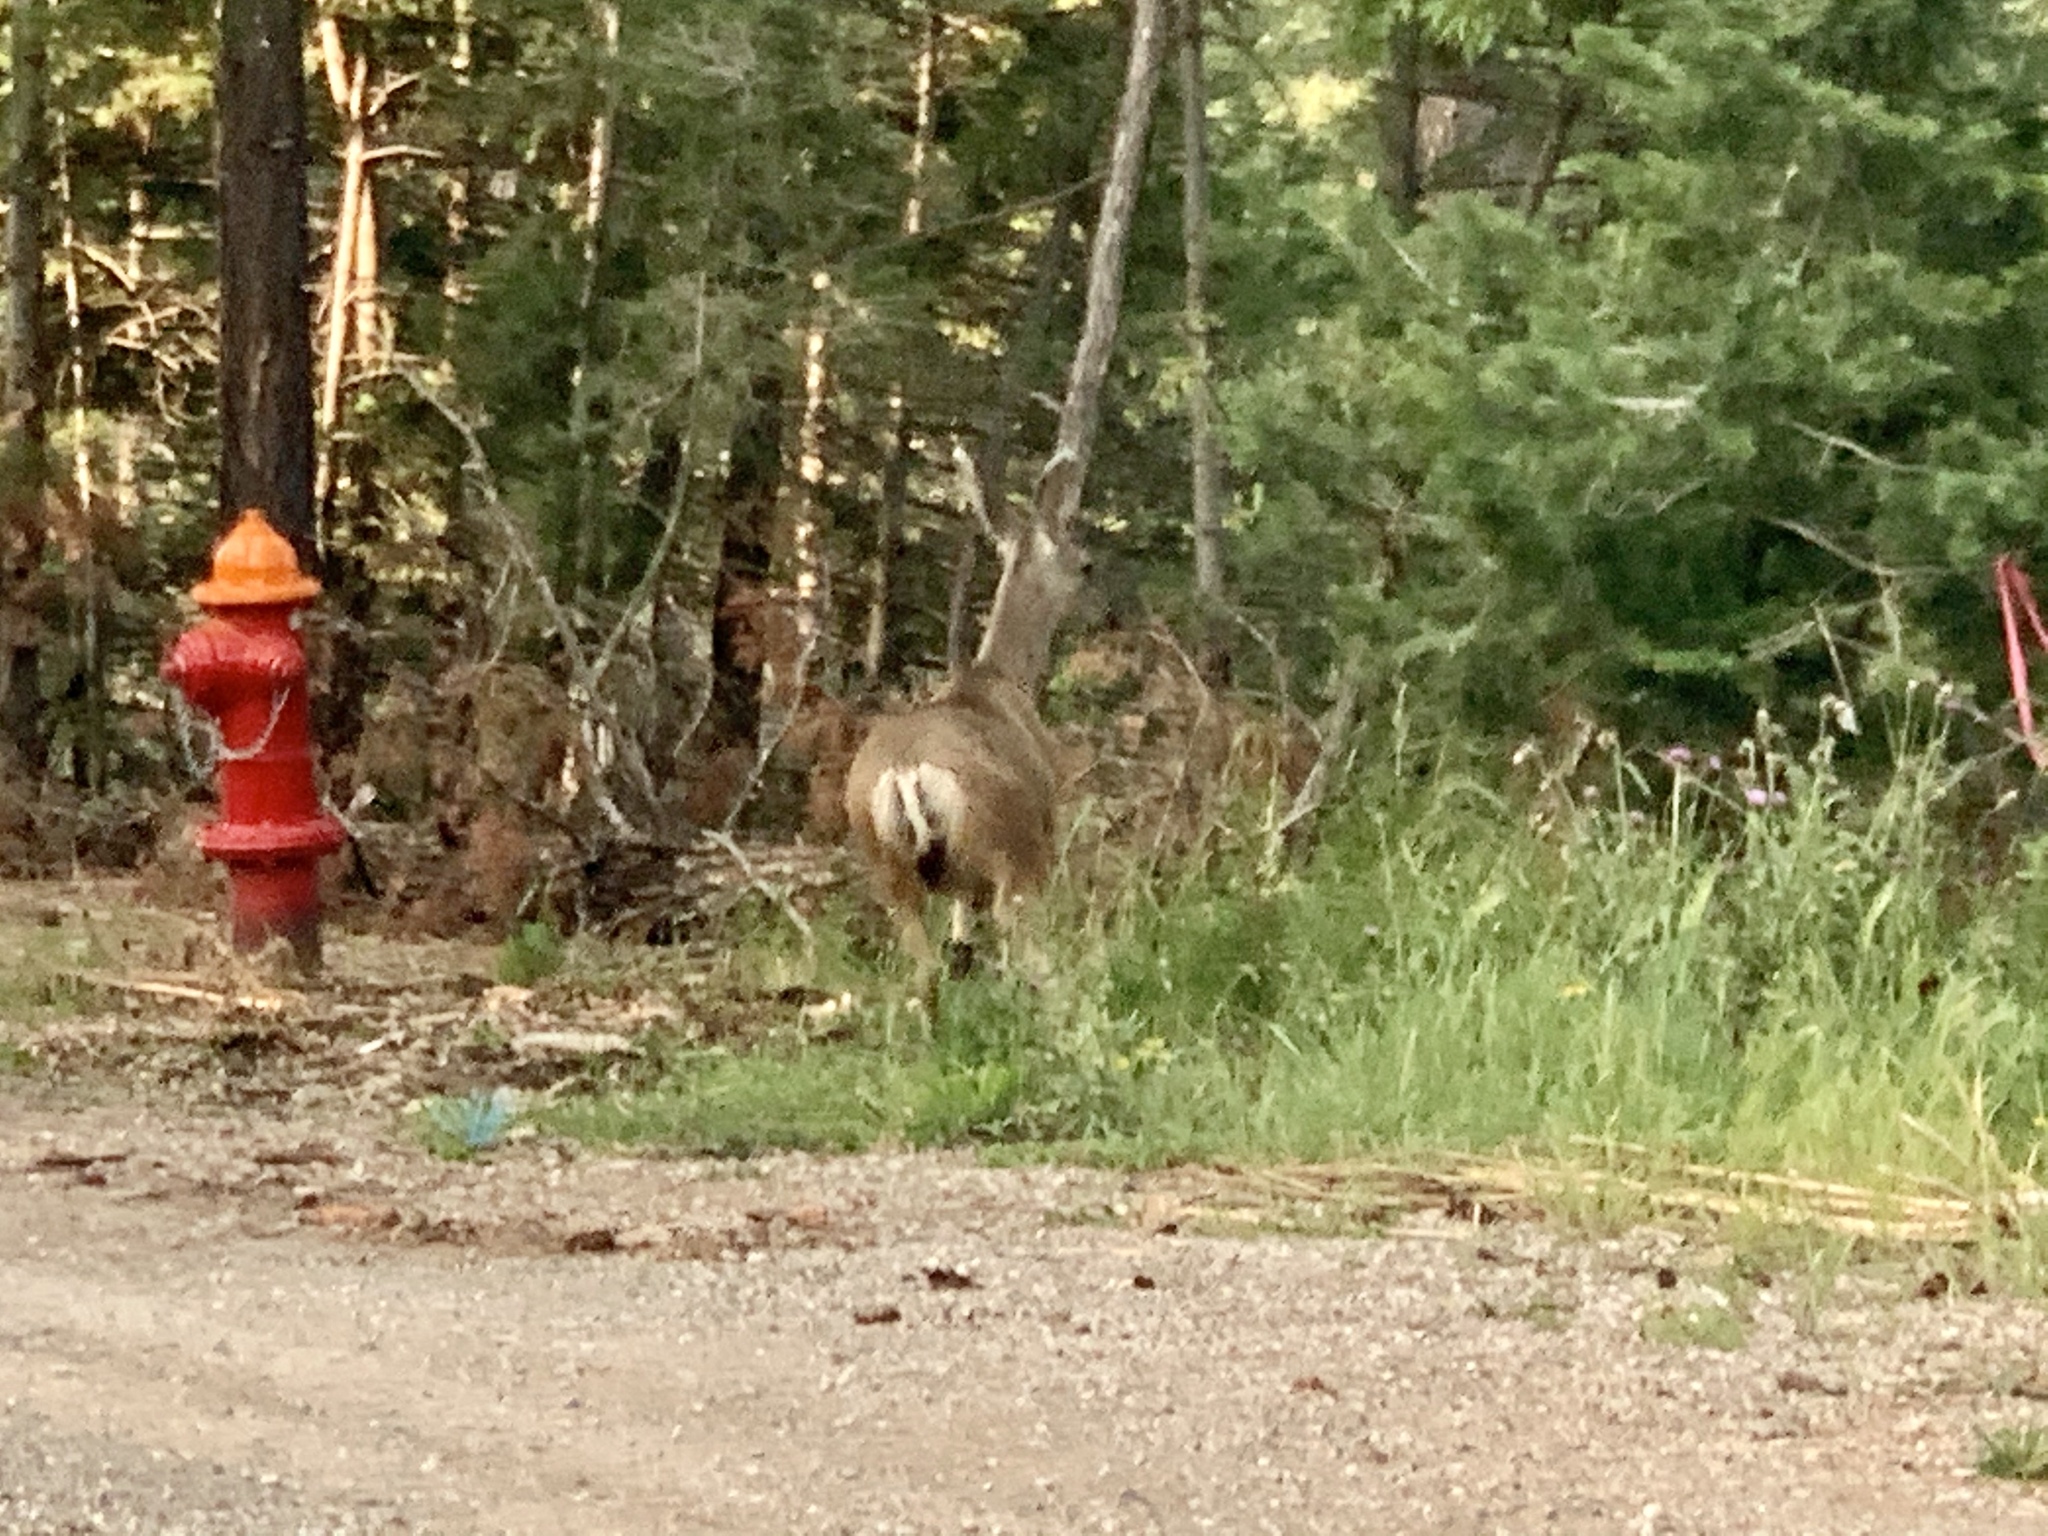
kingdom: Animalia
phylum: Chordata
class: Mammalia
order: Artiodactyla
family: Cervidae
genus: Odocoileus
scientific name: Odocoileus hemionus
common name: Mule deer
